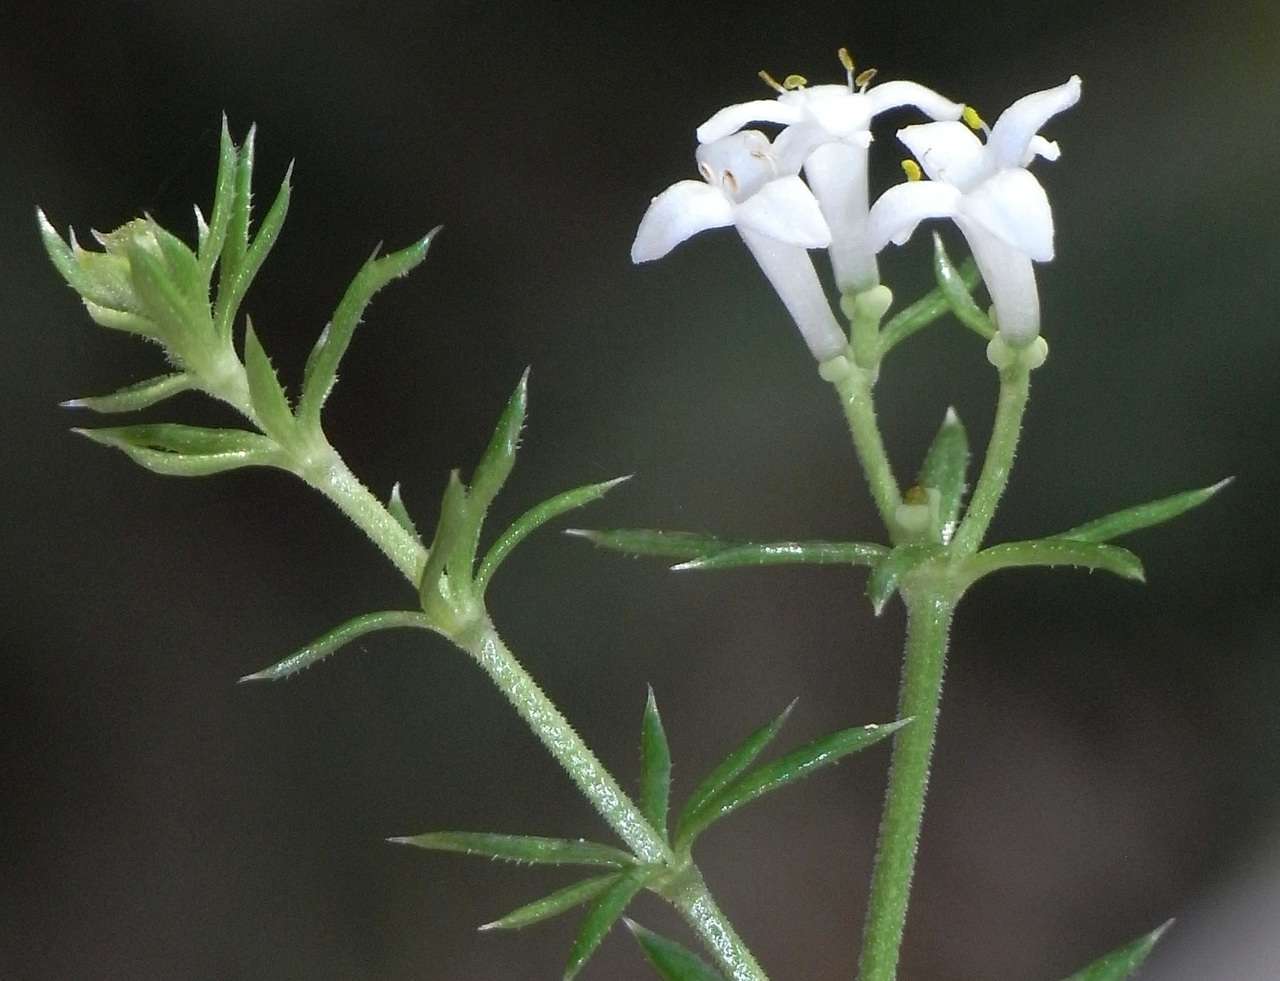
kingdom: Plantae
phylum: Tracheophyta
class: Magnoliopsida
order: Gentianales
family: Rubiaceae
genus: Asperula
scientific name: Asperula scoparia
